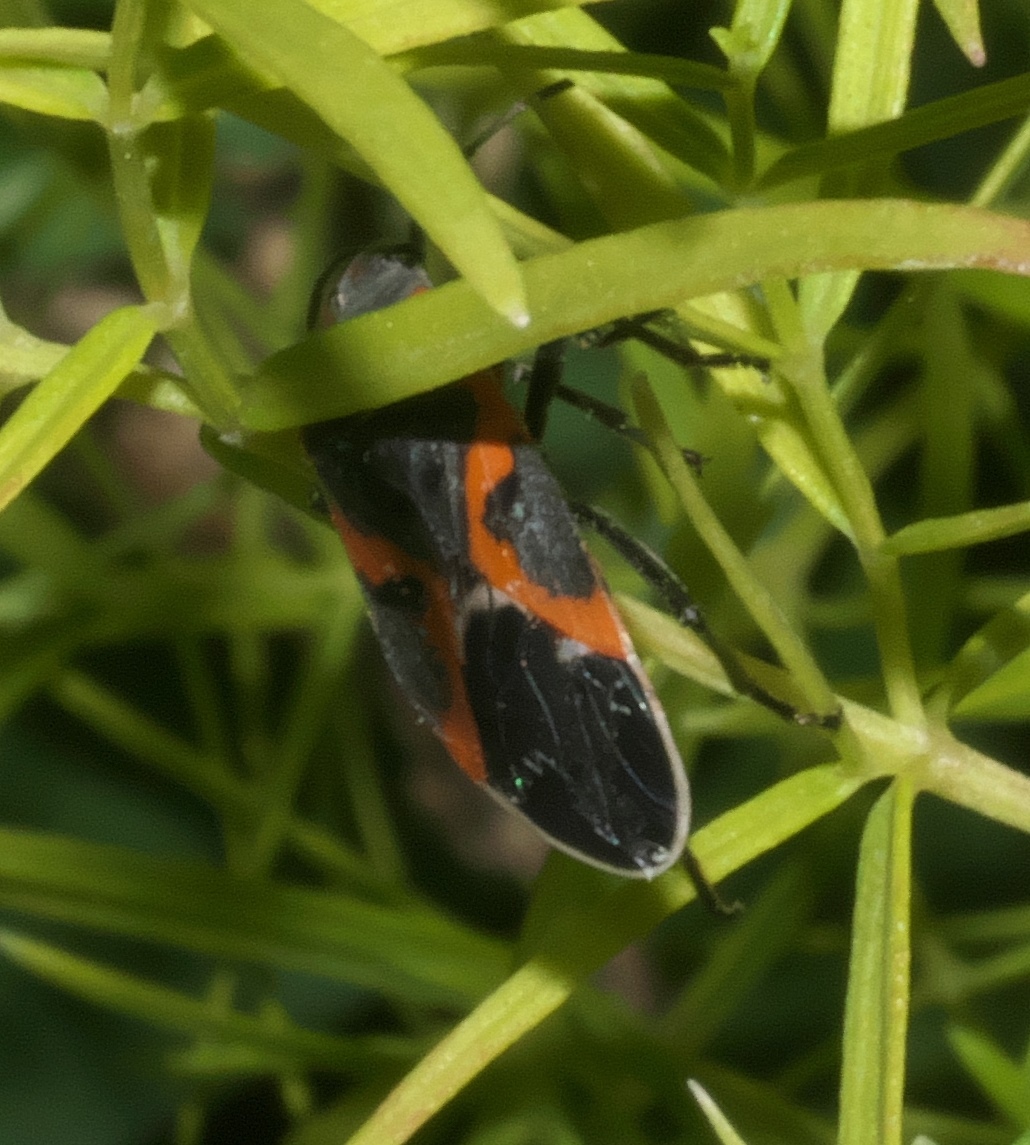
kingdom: Animalia
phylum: Arthropoda
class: Insecta
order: Hemiptera
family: Lygaeidae
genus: Lygaeus
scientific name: Lygaeus kalmii
